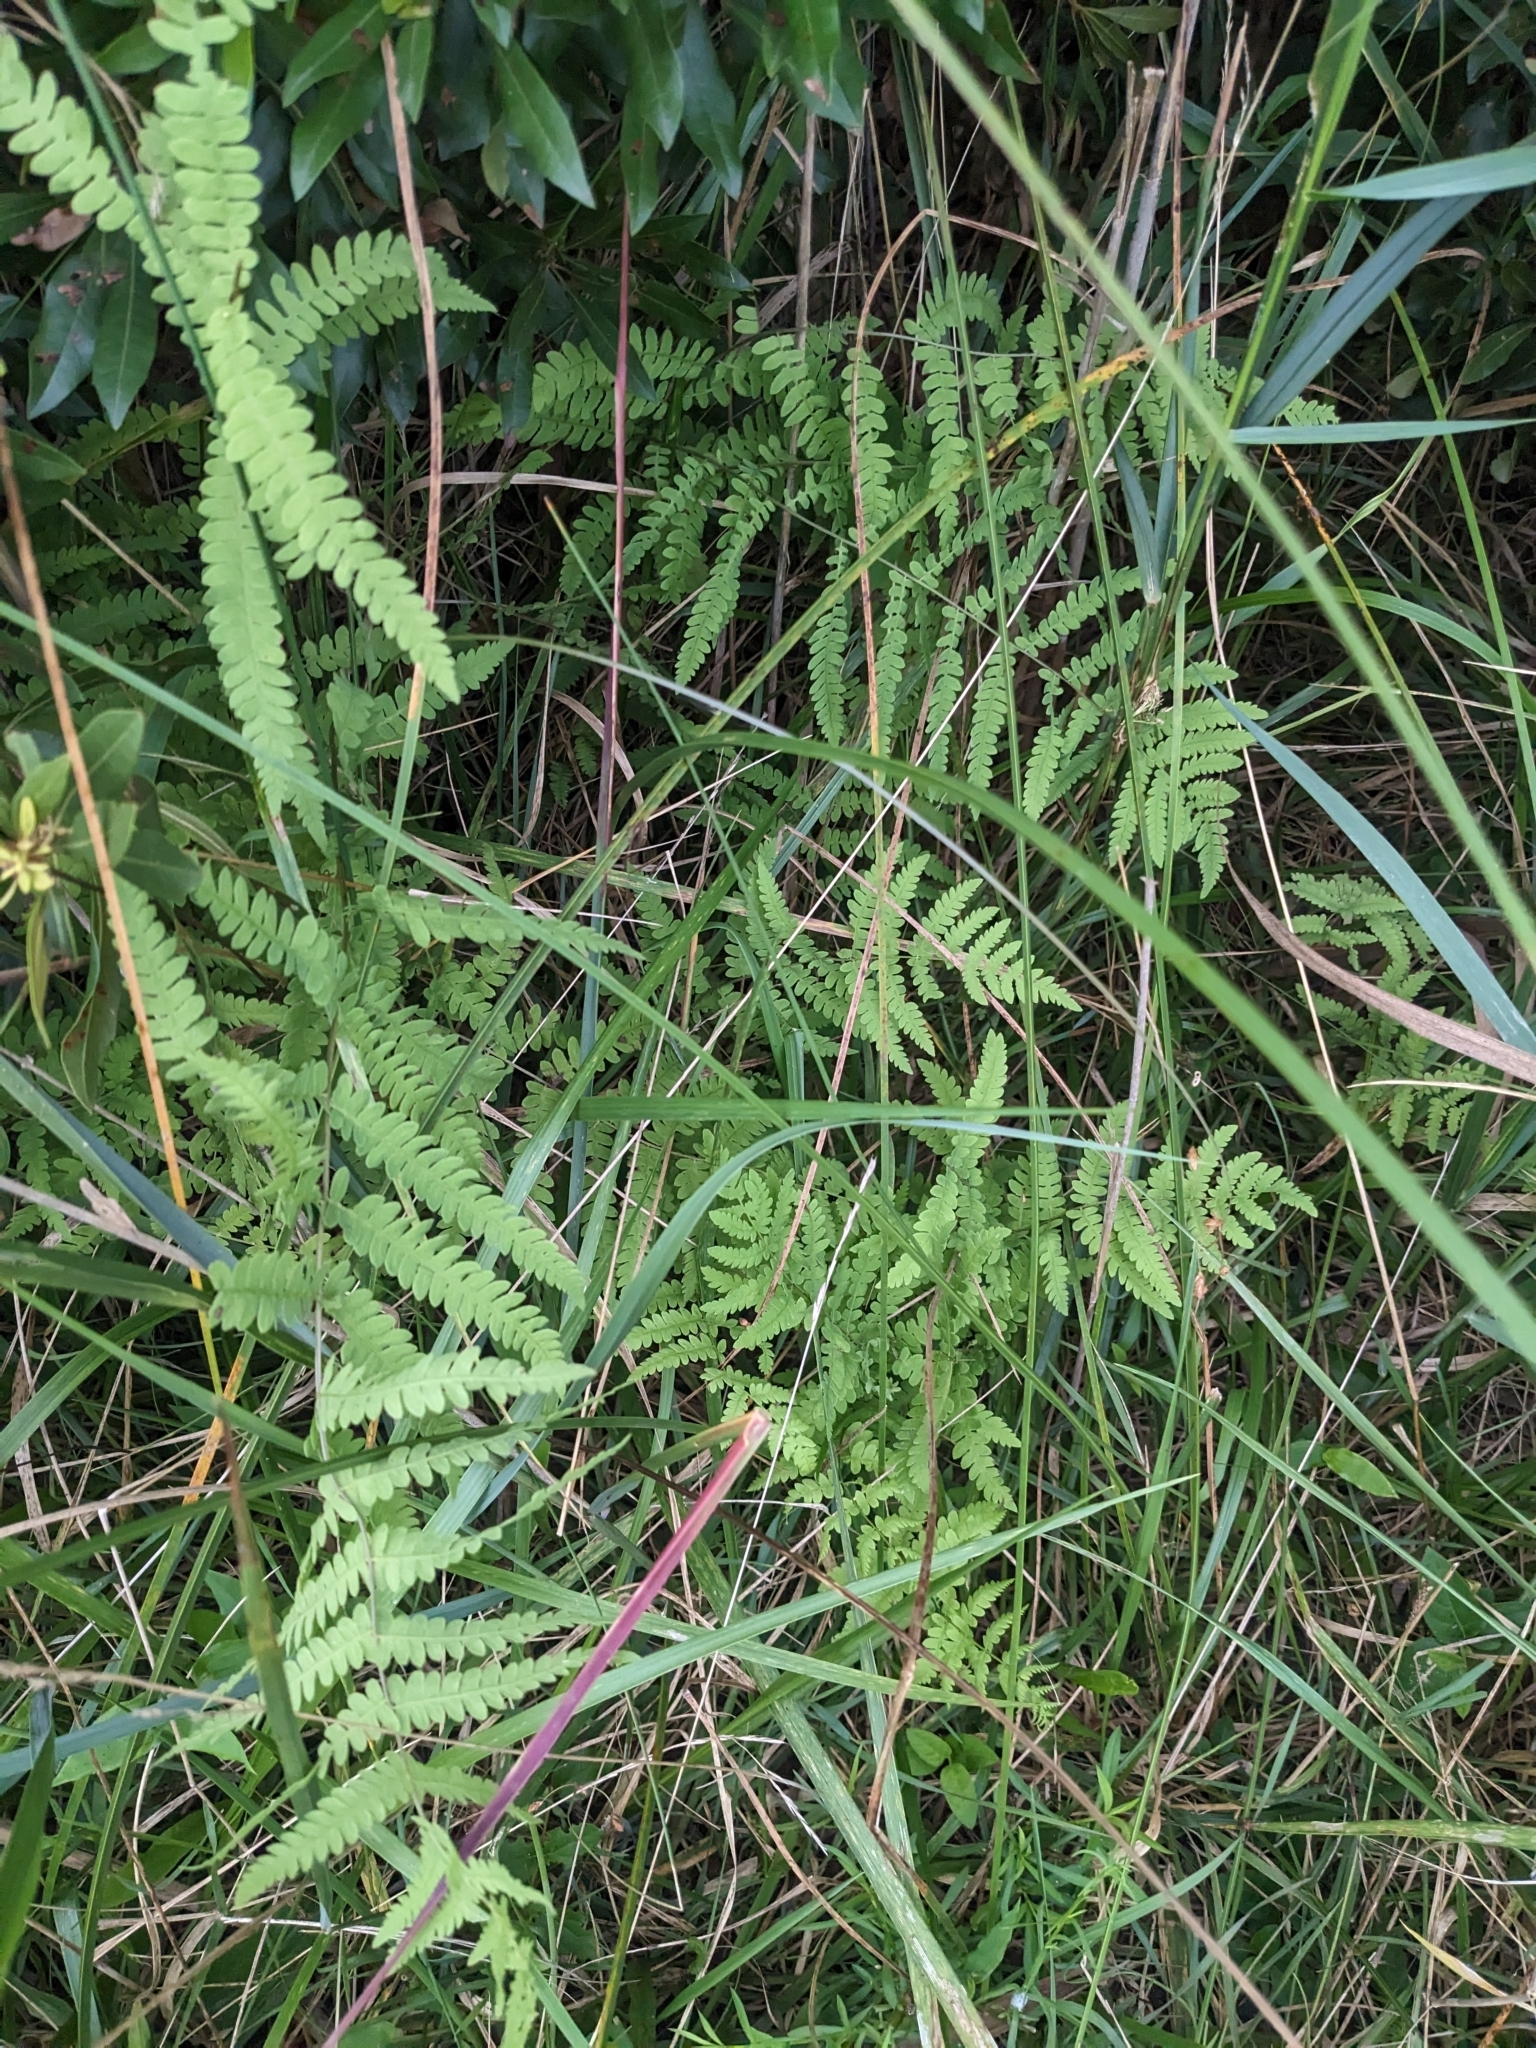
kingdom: Plantae
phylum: Tracheophyta
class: Polypodiopsida
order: Polypodiales
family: Thelypteridaceae
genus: Thelypteris
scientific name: Thelypteris palustris
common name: Marsh fern
